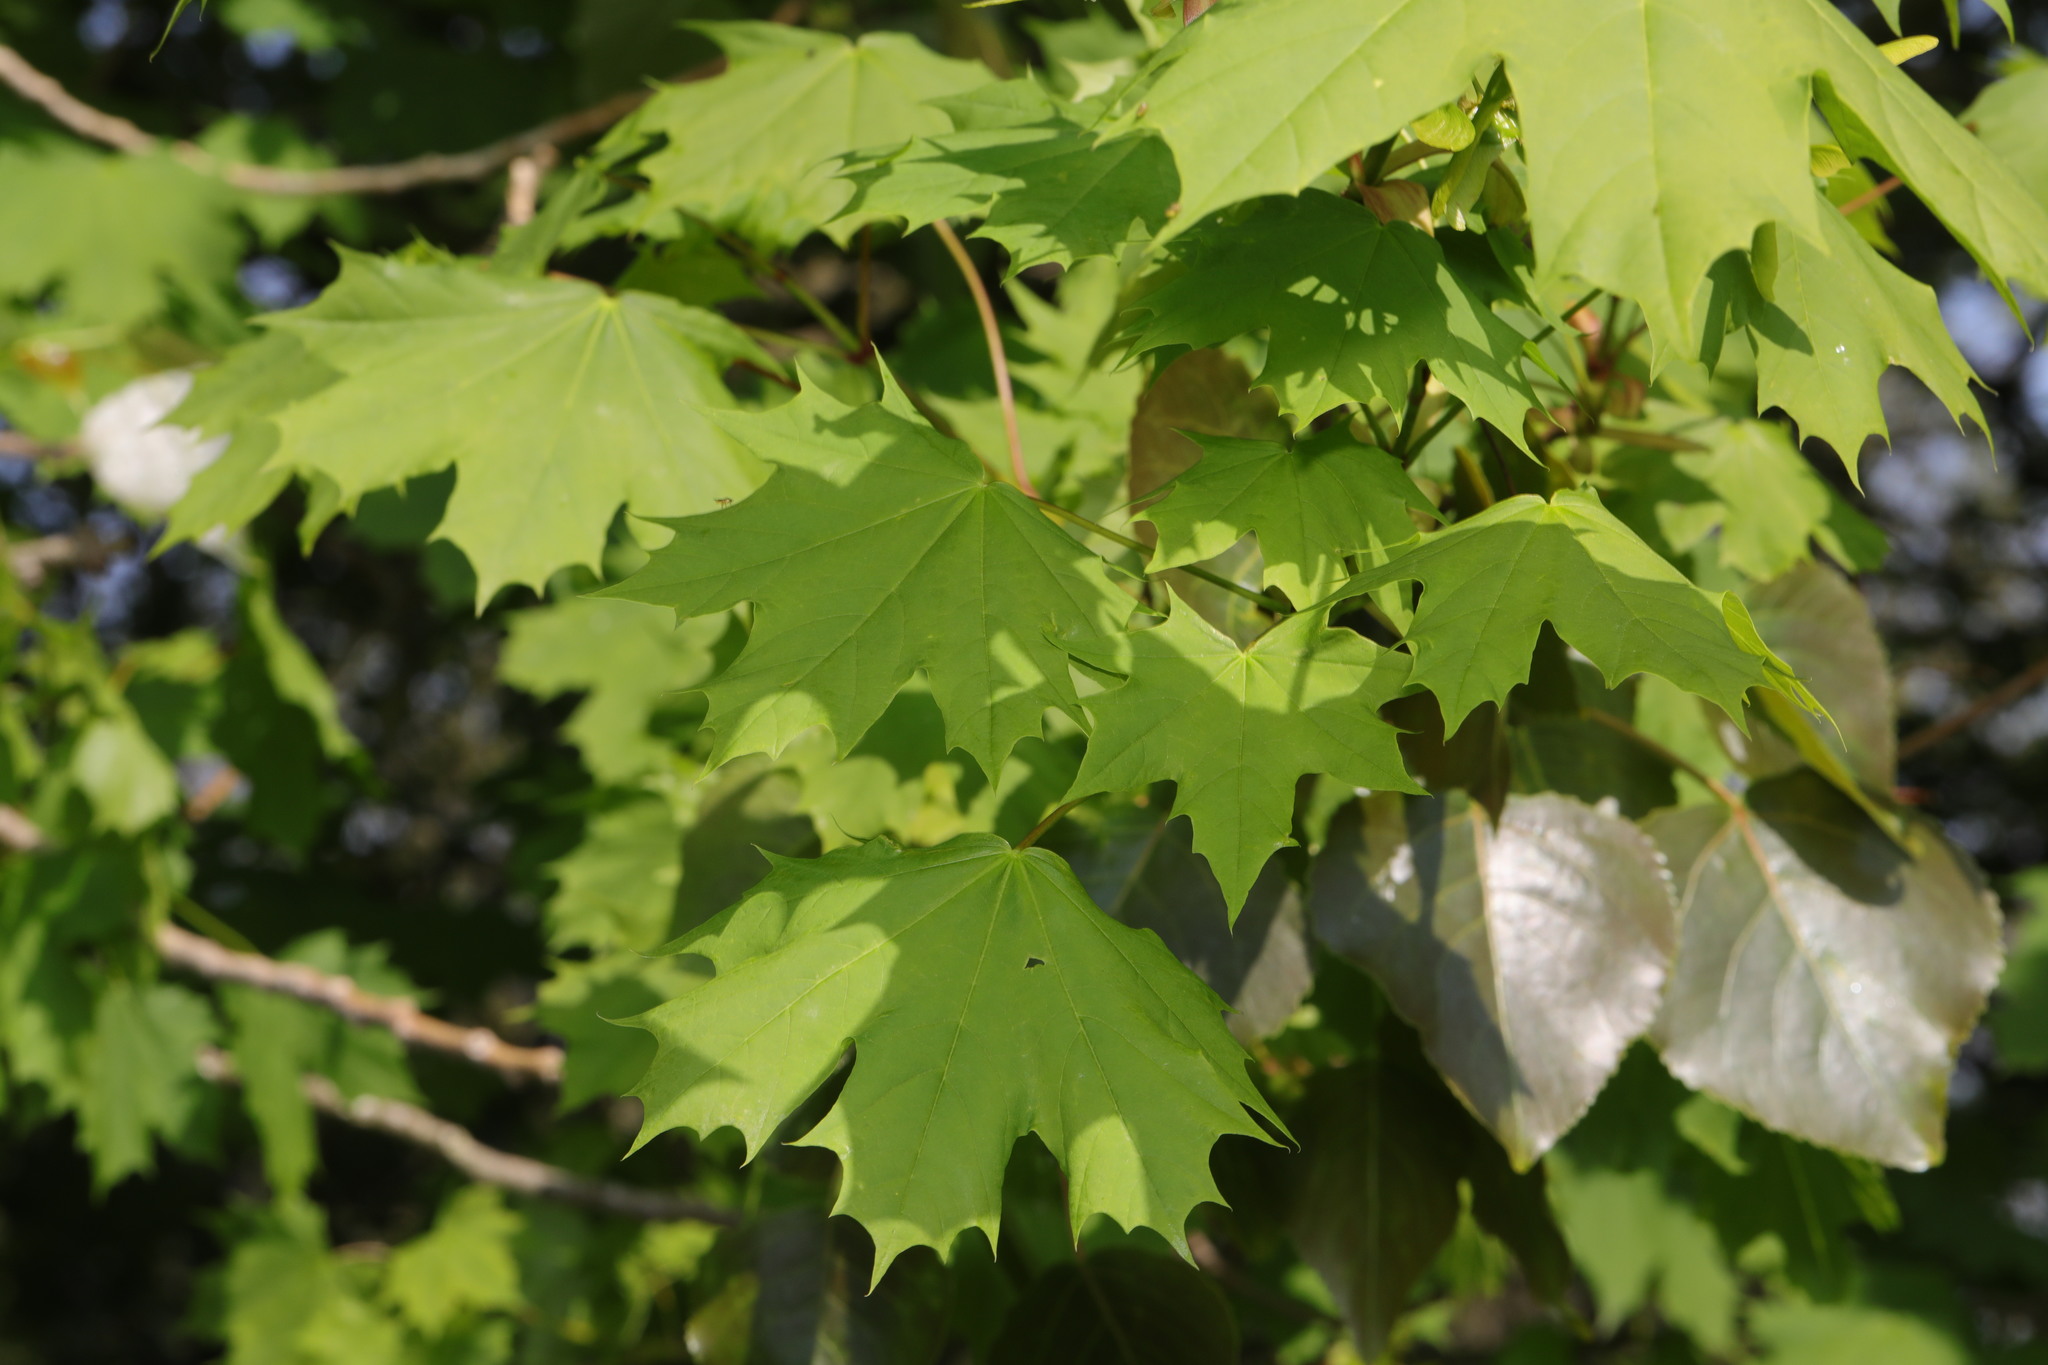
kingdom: Plantae
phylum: Tracheophyta
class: Magnoliopsida
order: Sapindales
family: Sapindaceae
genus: Acer
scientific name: Acer platanoides
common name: Norway maple
